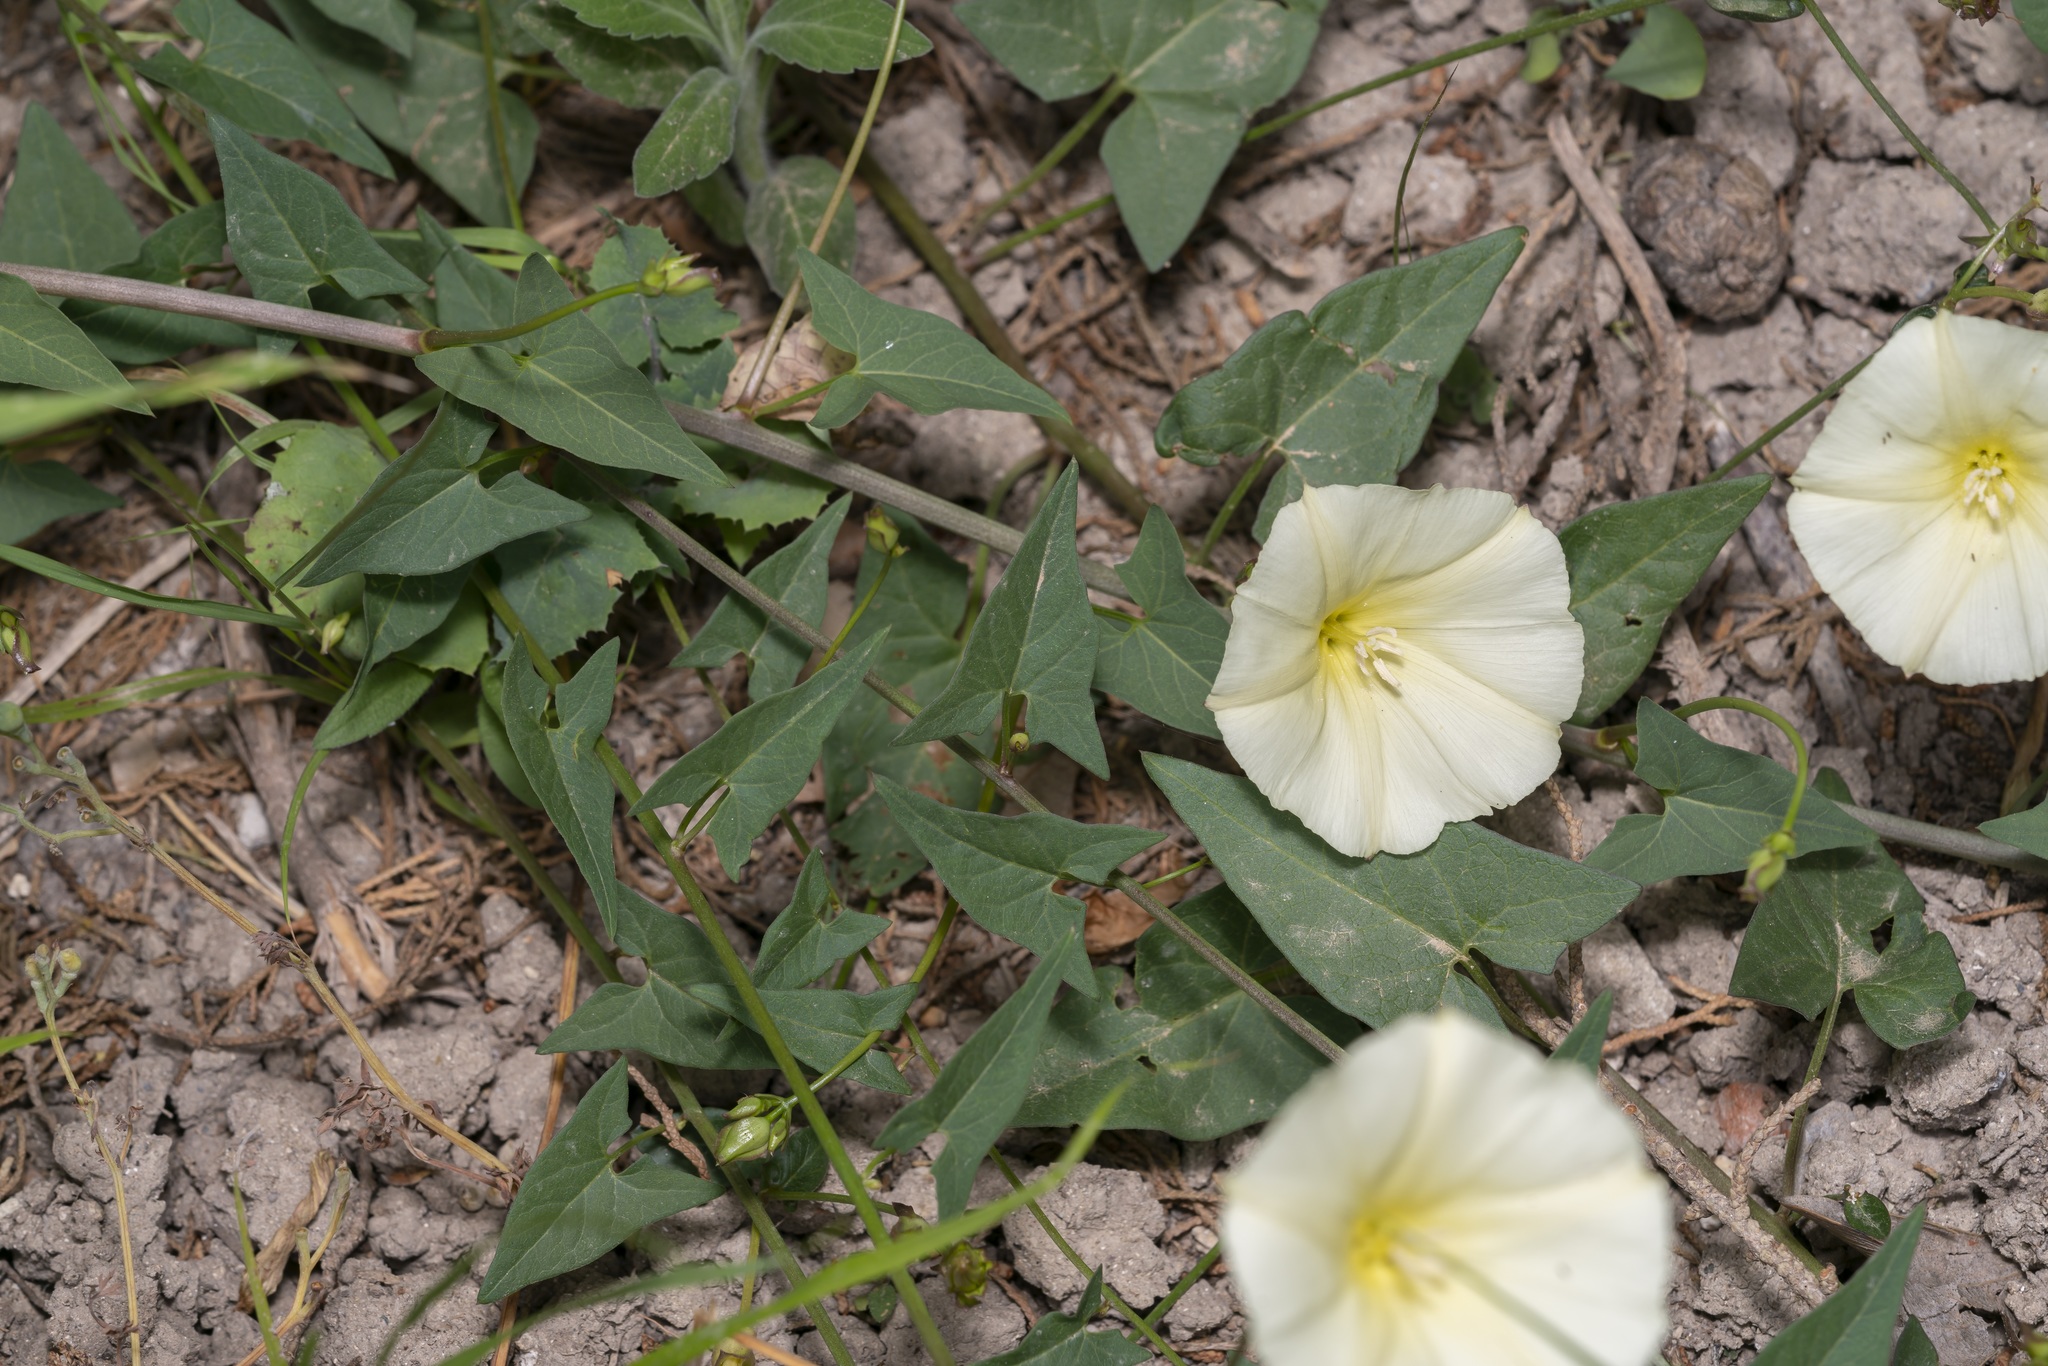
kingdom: Plantae
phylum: Tracheophyta
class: Magnoliopsida
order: Solanales
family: Convolvulaceae
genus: Convolvulus
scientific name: Convolvulus scammonia
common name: Scammony
